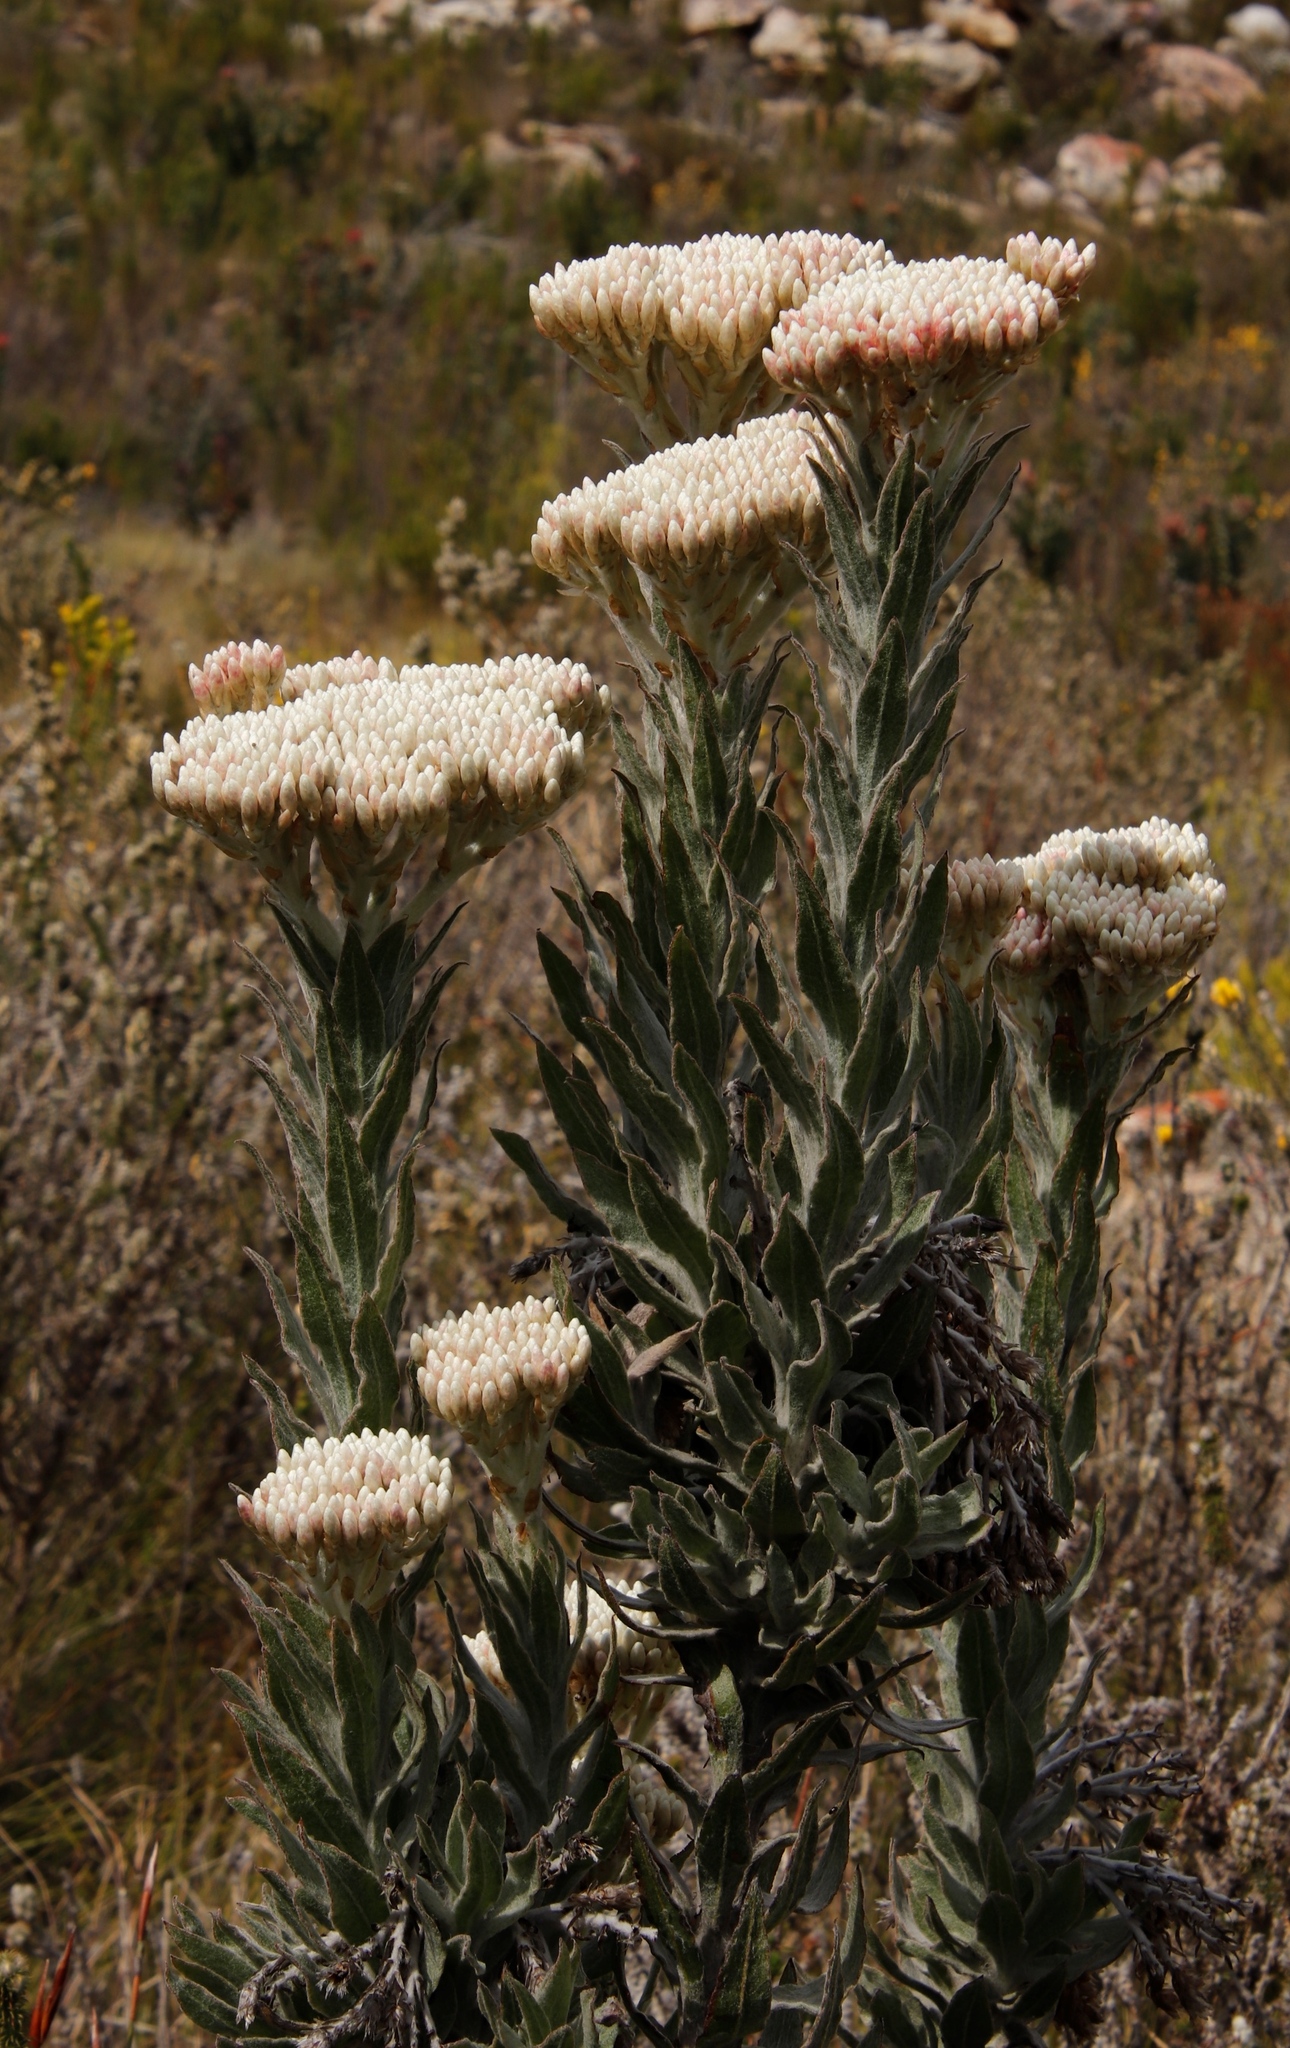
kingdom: Plantae
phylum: Tracheophyta
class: Magnoliopsida
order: Asterales
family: Asteraceae
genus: Syncarpha
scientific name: Syncarpha milleflora
